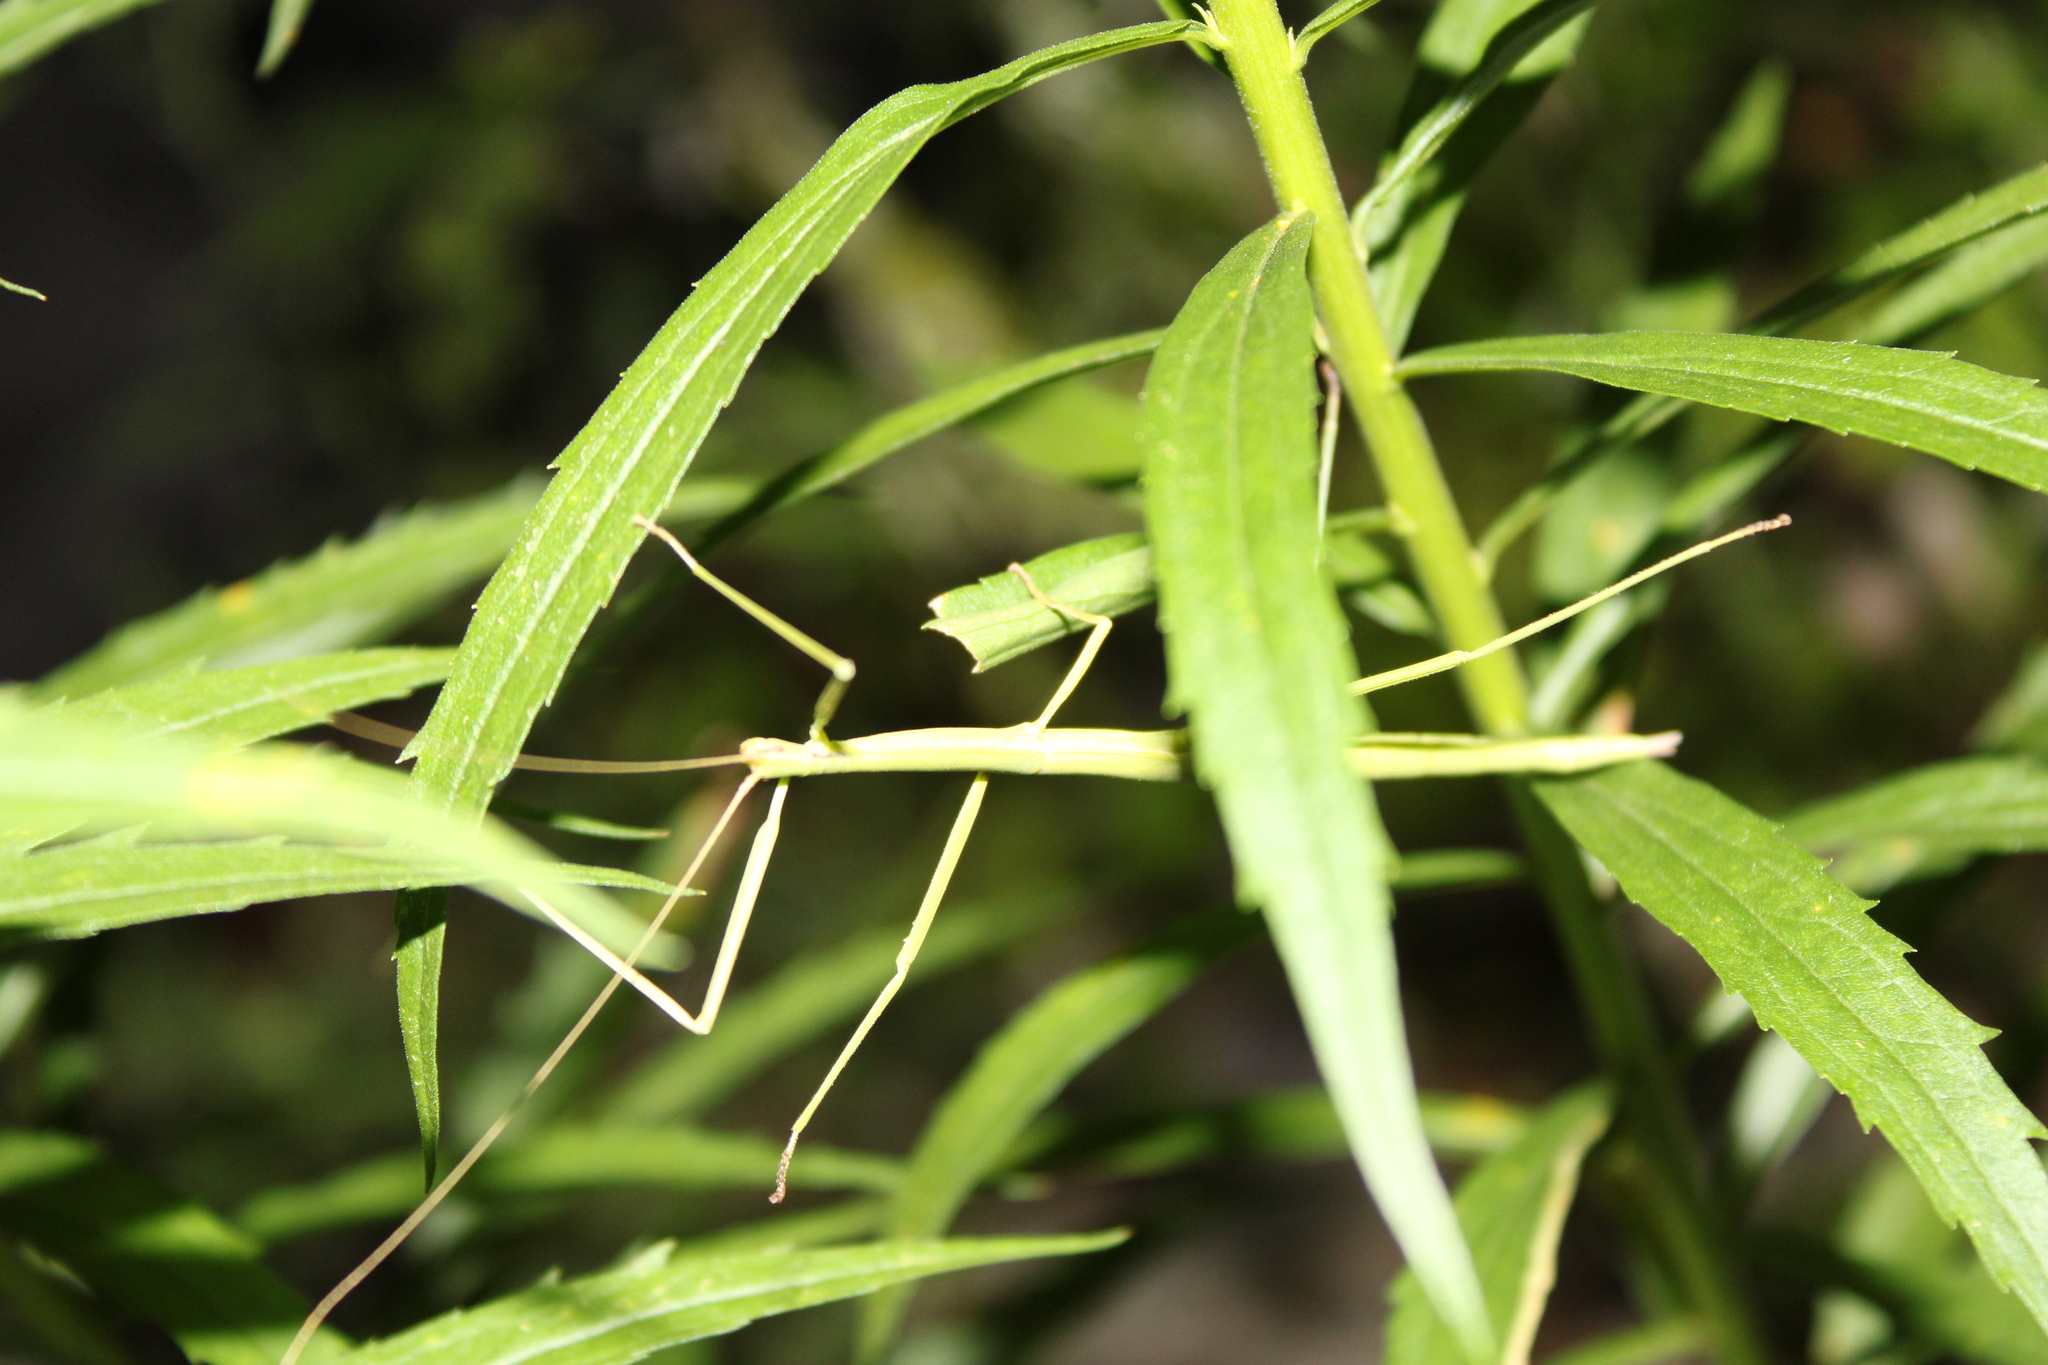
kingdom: Animalia
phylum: Arthropoda
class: Insecta
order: Phasmida
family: Diapheromeridae
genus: Manomera
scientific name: Manomera blatchleyi
